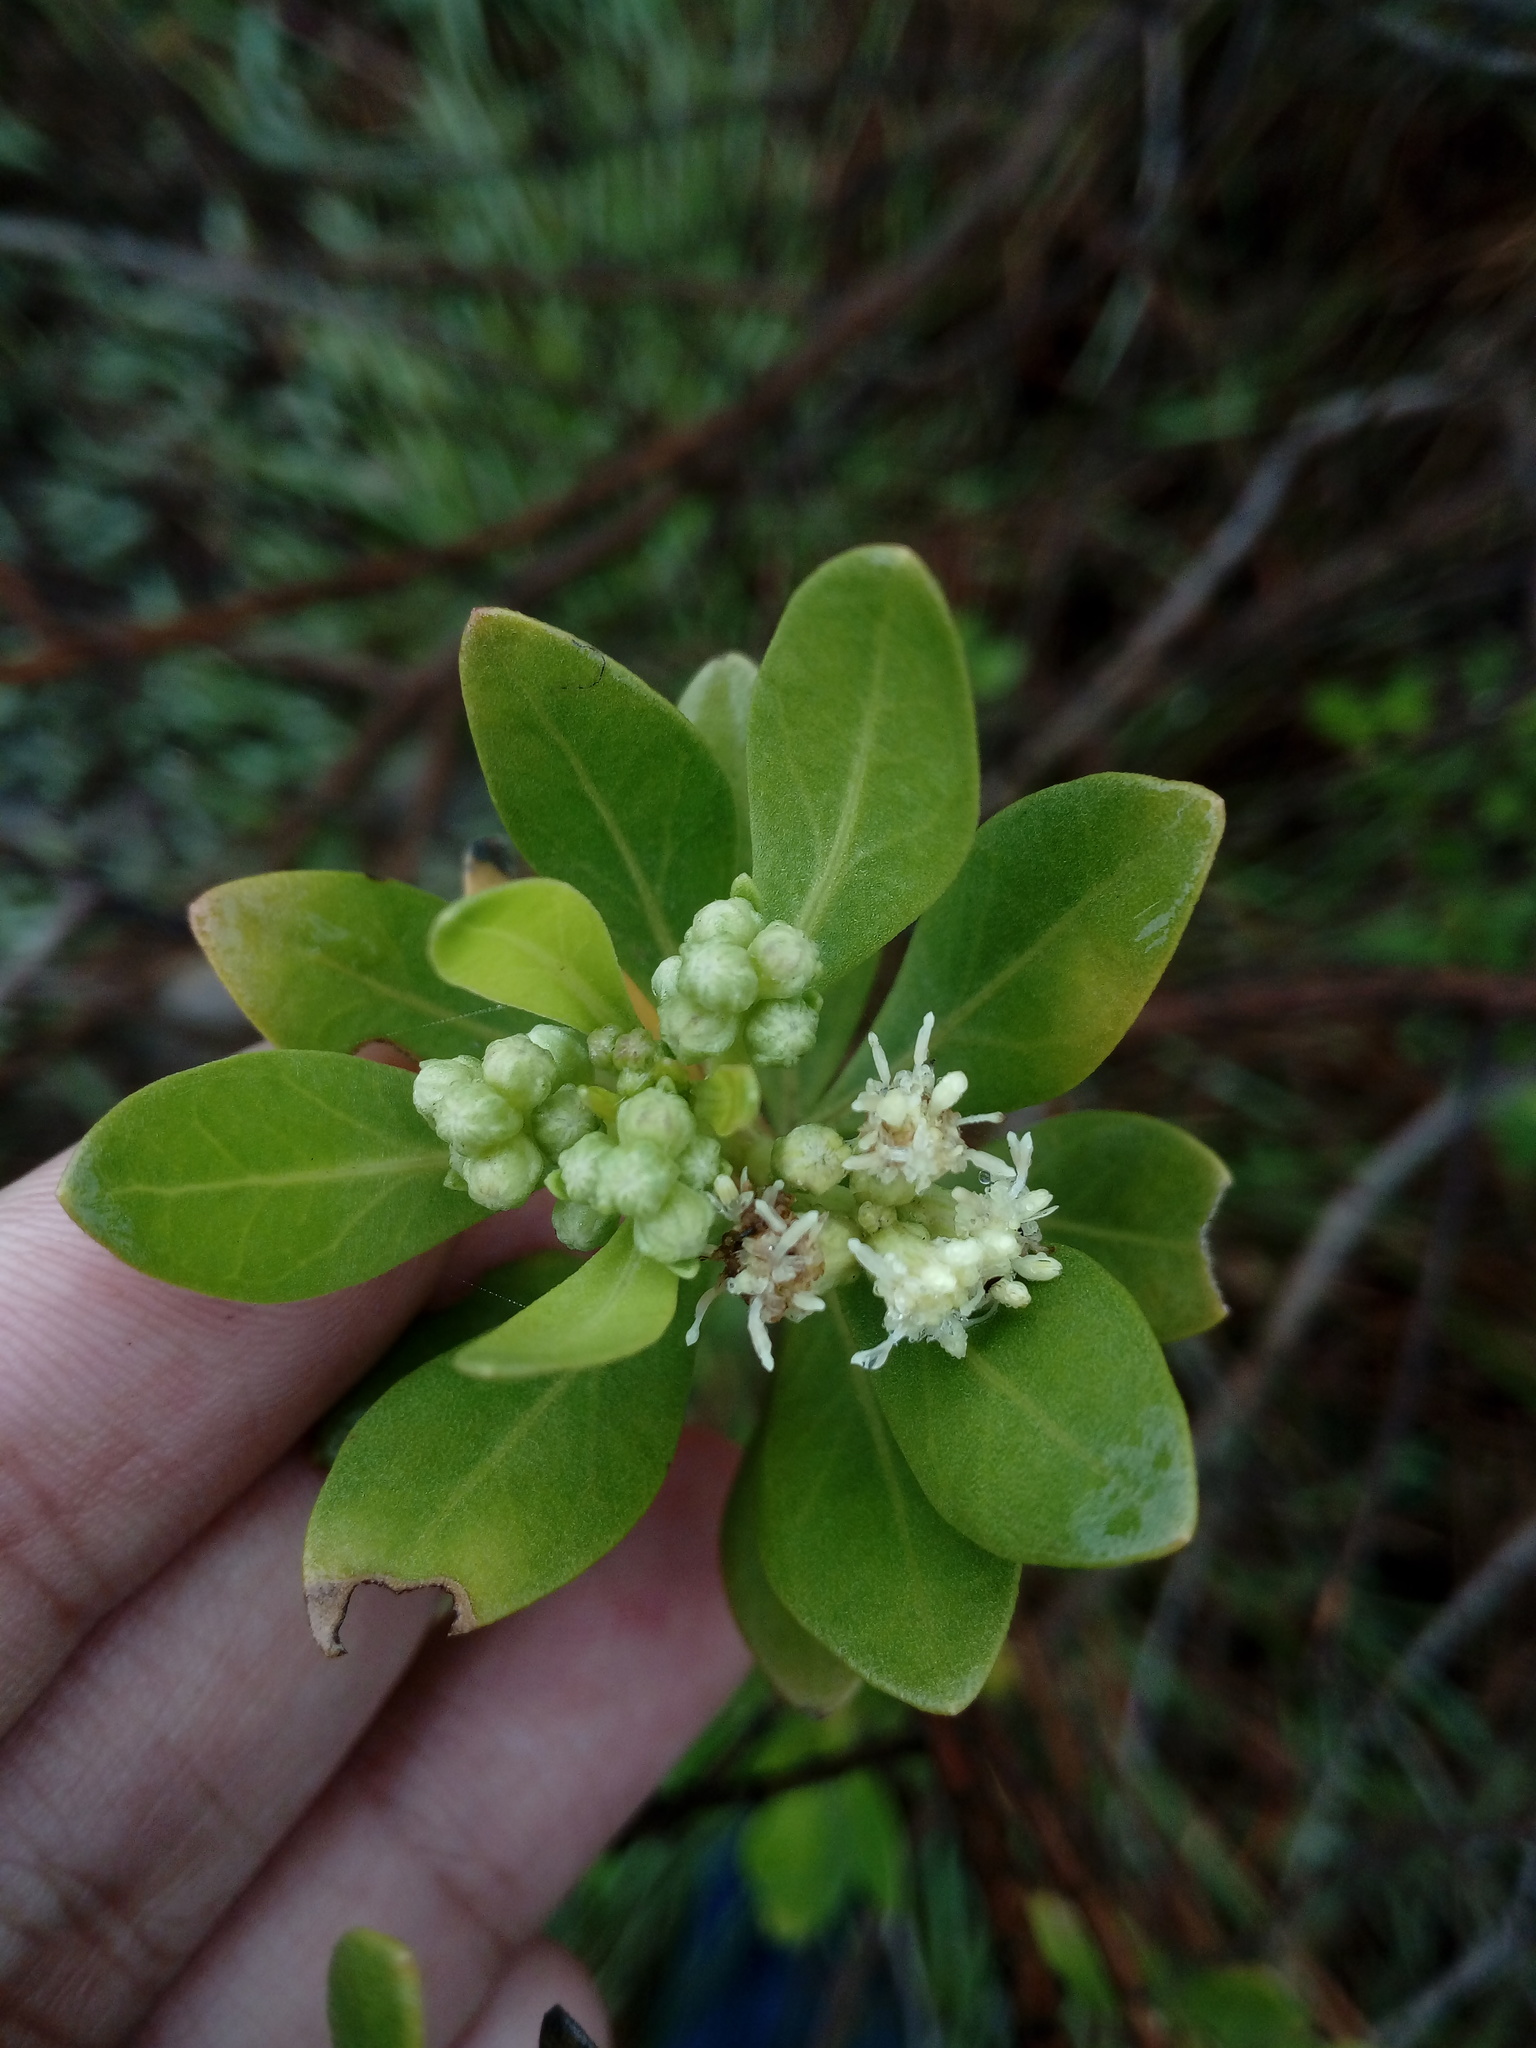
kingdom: Plantae
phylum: Tracheophyta
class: Magnoliopsida
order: Asterales
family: Asteraceae
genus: Baccharis
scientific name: Baccharis macrantha
